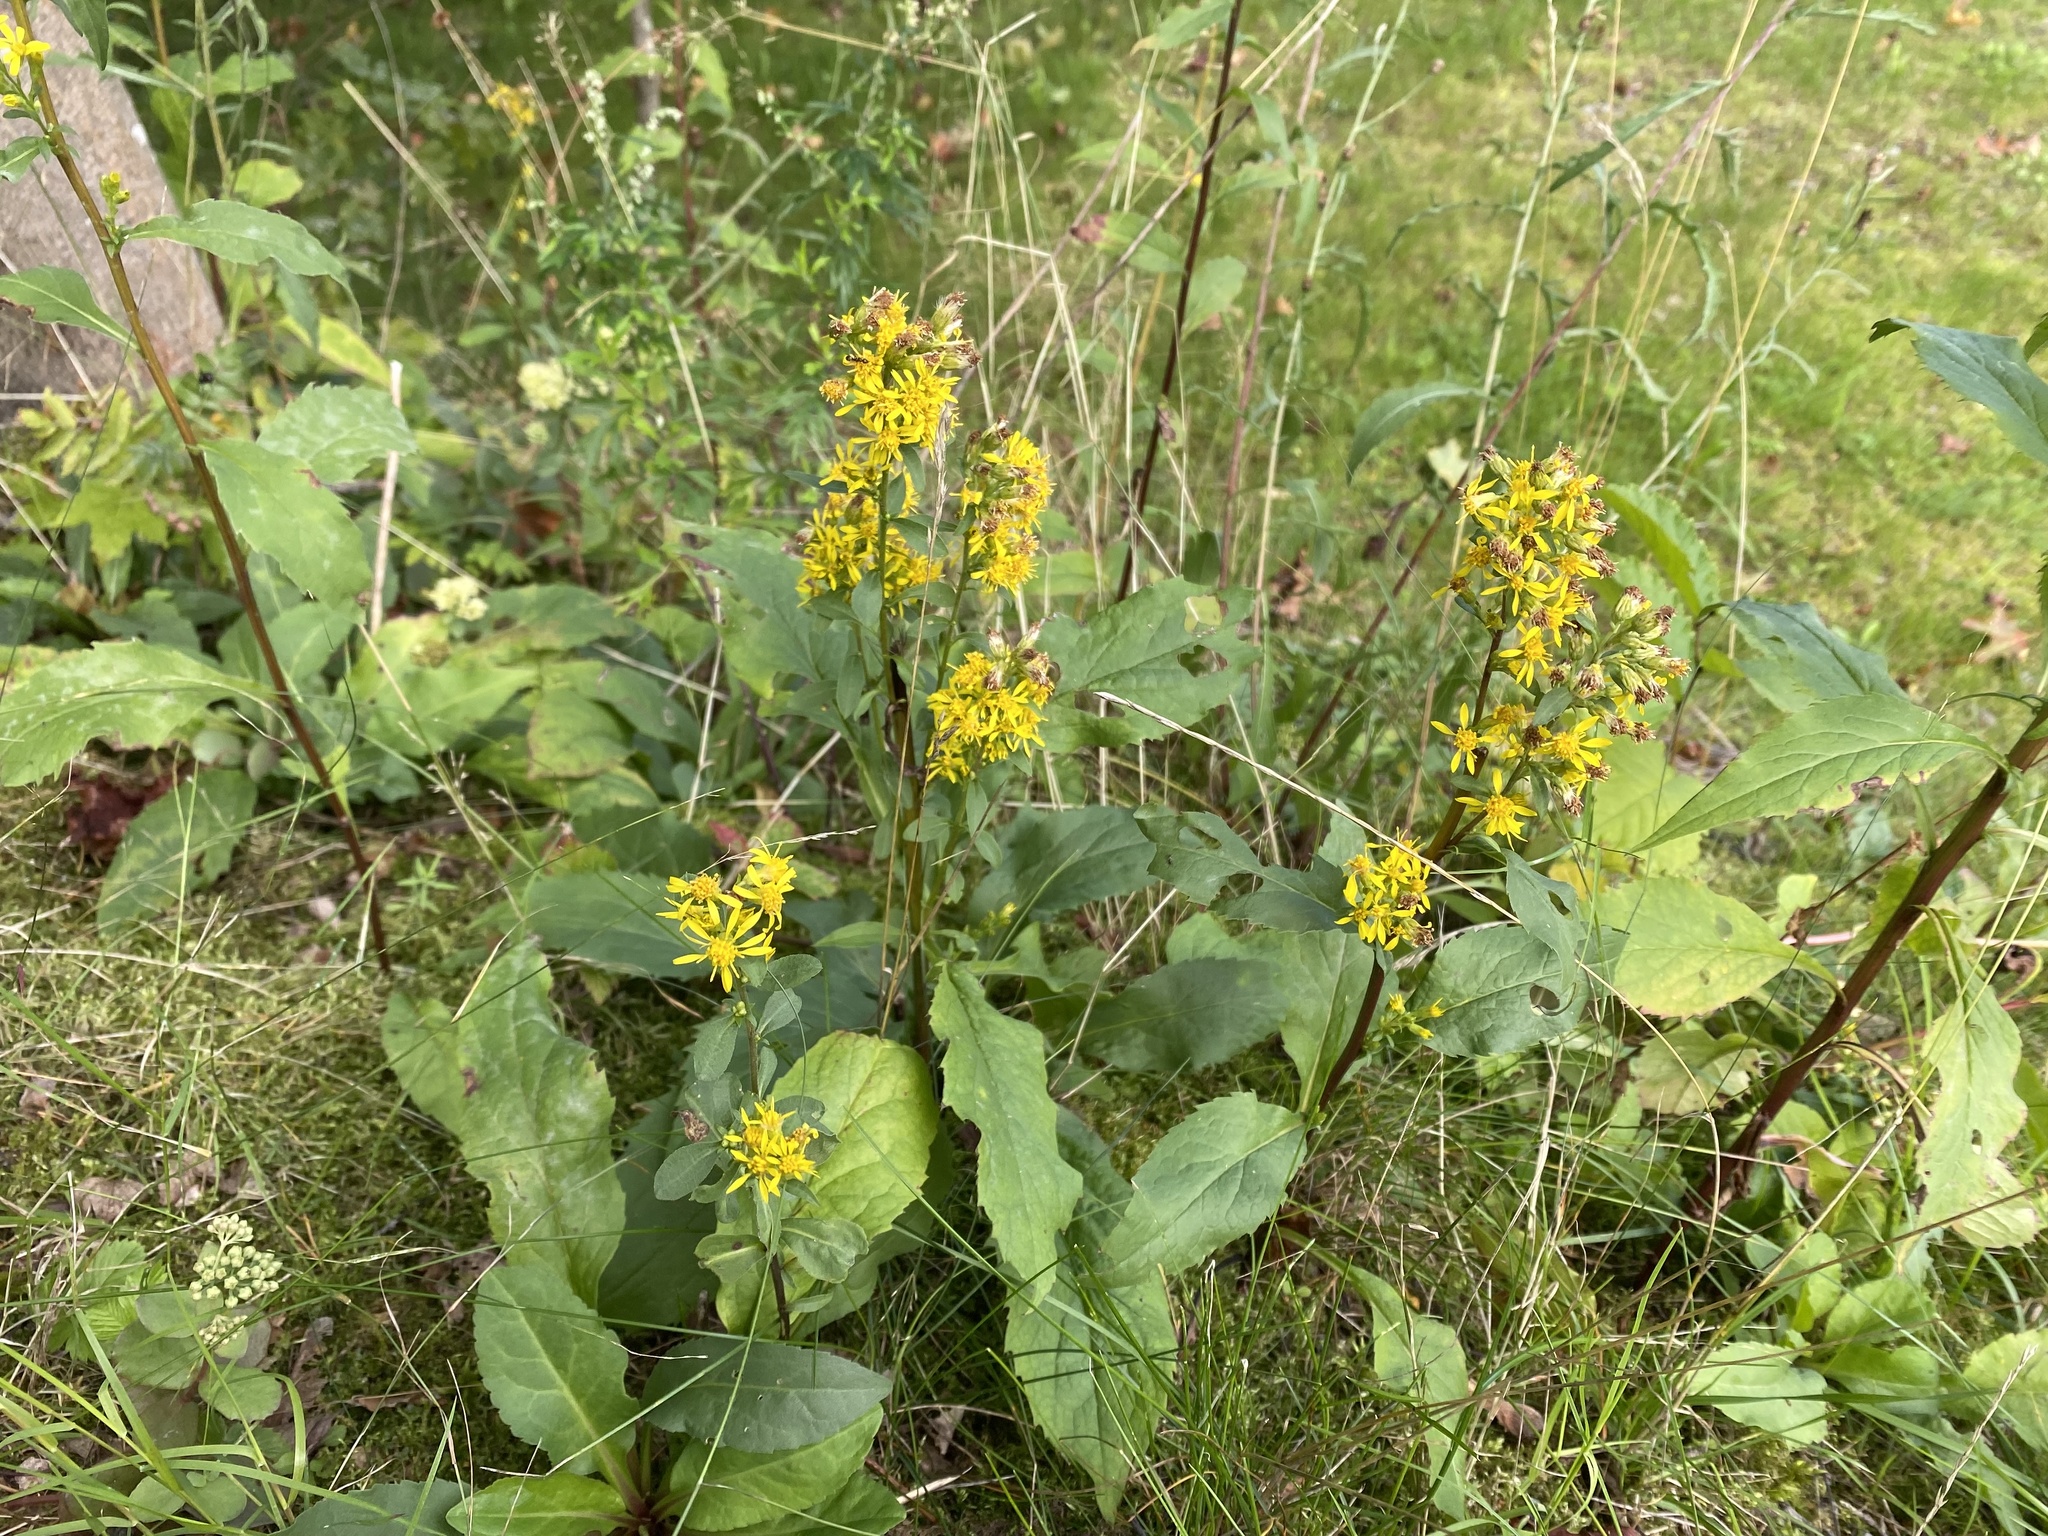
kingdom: Plantae
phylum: Tracheophyta
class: Magnoliopsida
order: Asterales
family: Asteraceae
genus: Solidago
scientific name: Solidago virgaurea
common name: Goldenrod
